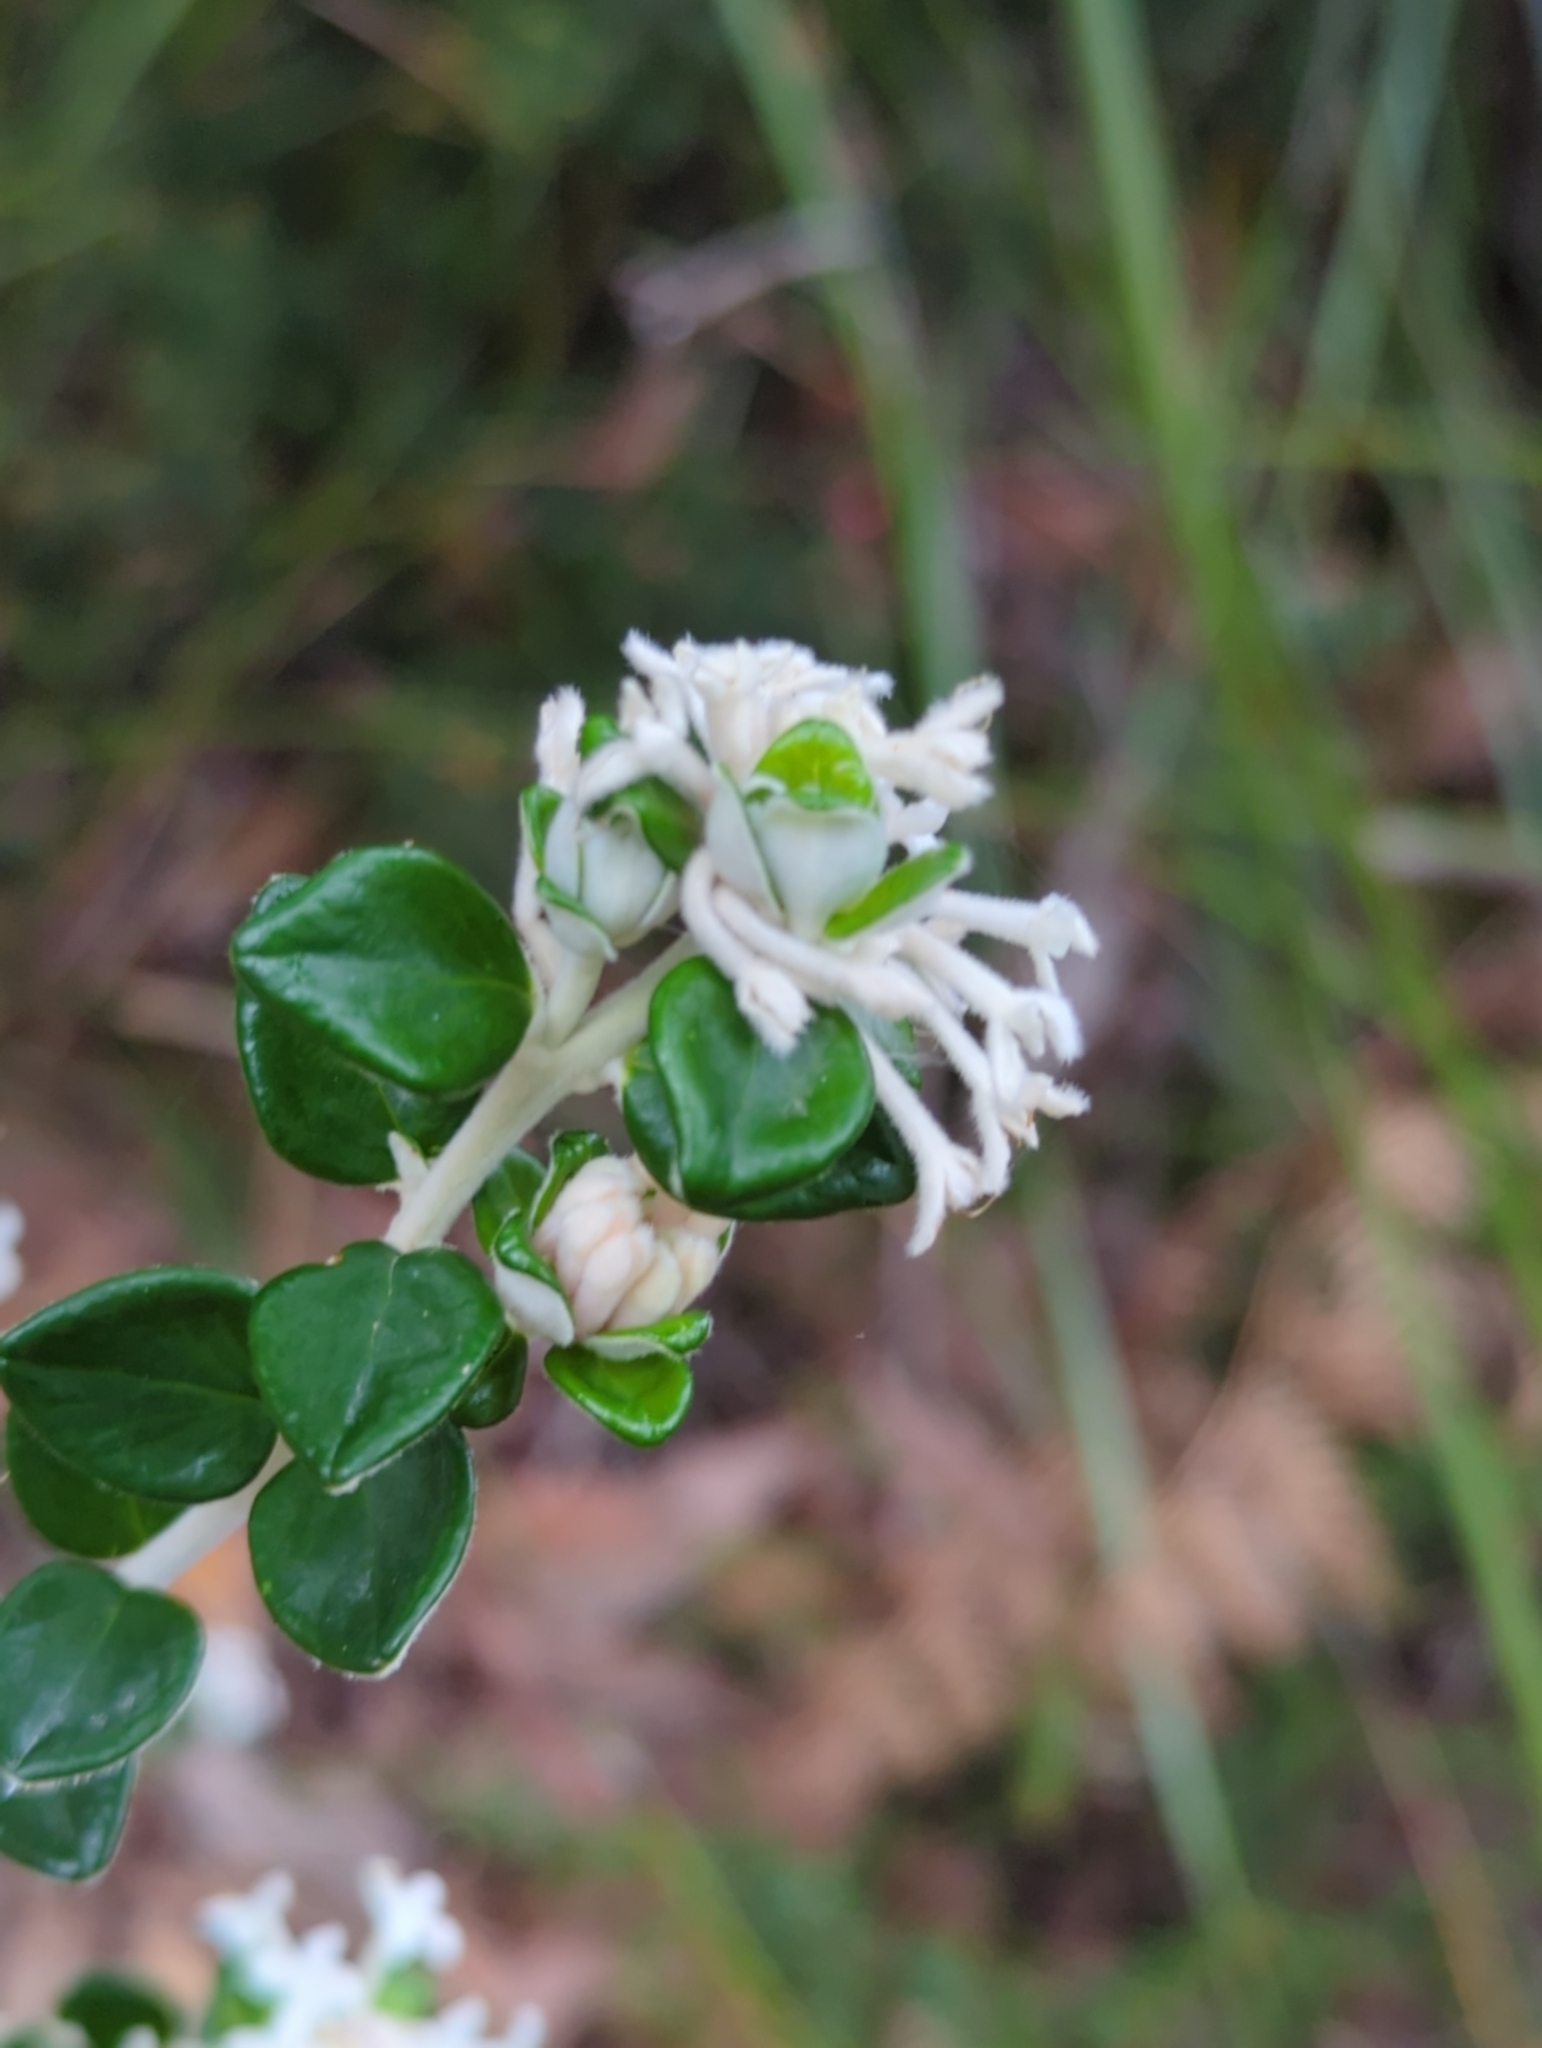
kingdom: Plantae
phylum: Tracheophyta
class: Magnoliopsida
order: Malvales
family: Thymelaeaceae
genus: Pimelea
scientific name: Pimelea nivea
